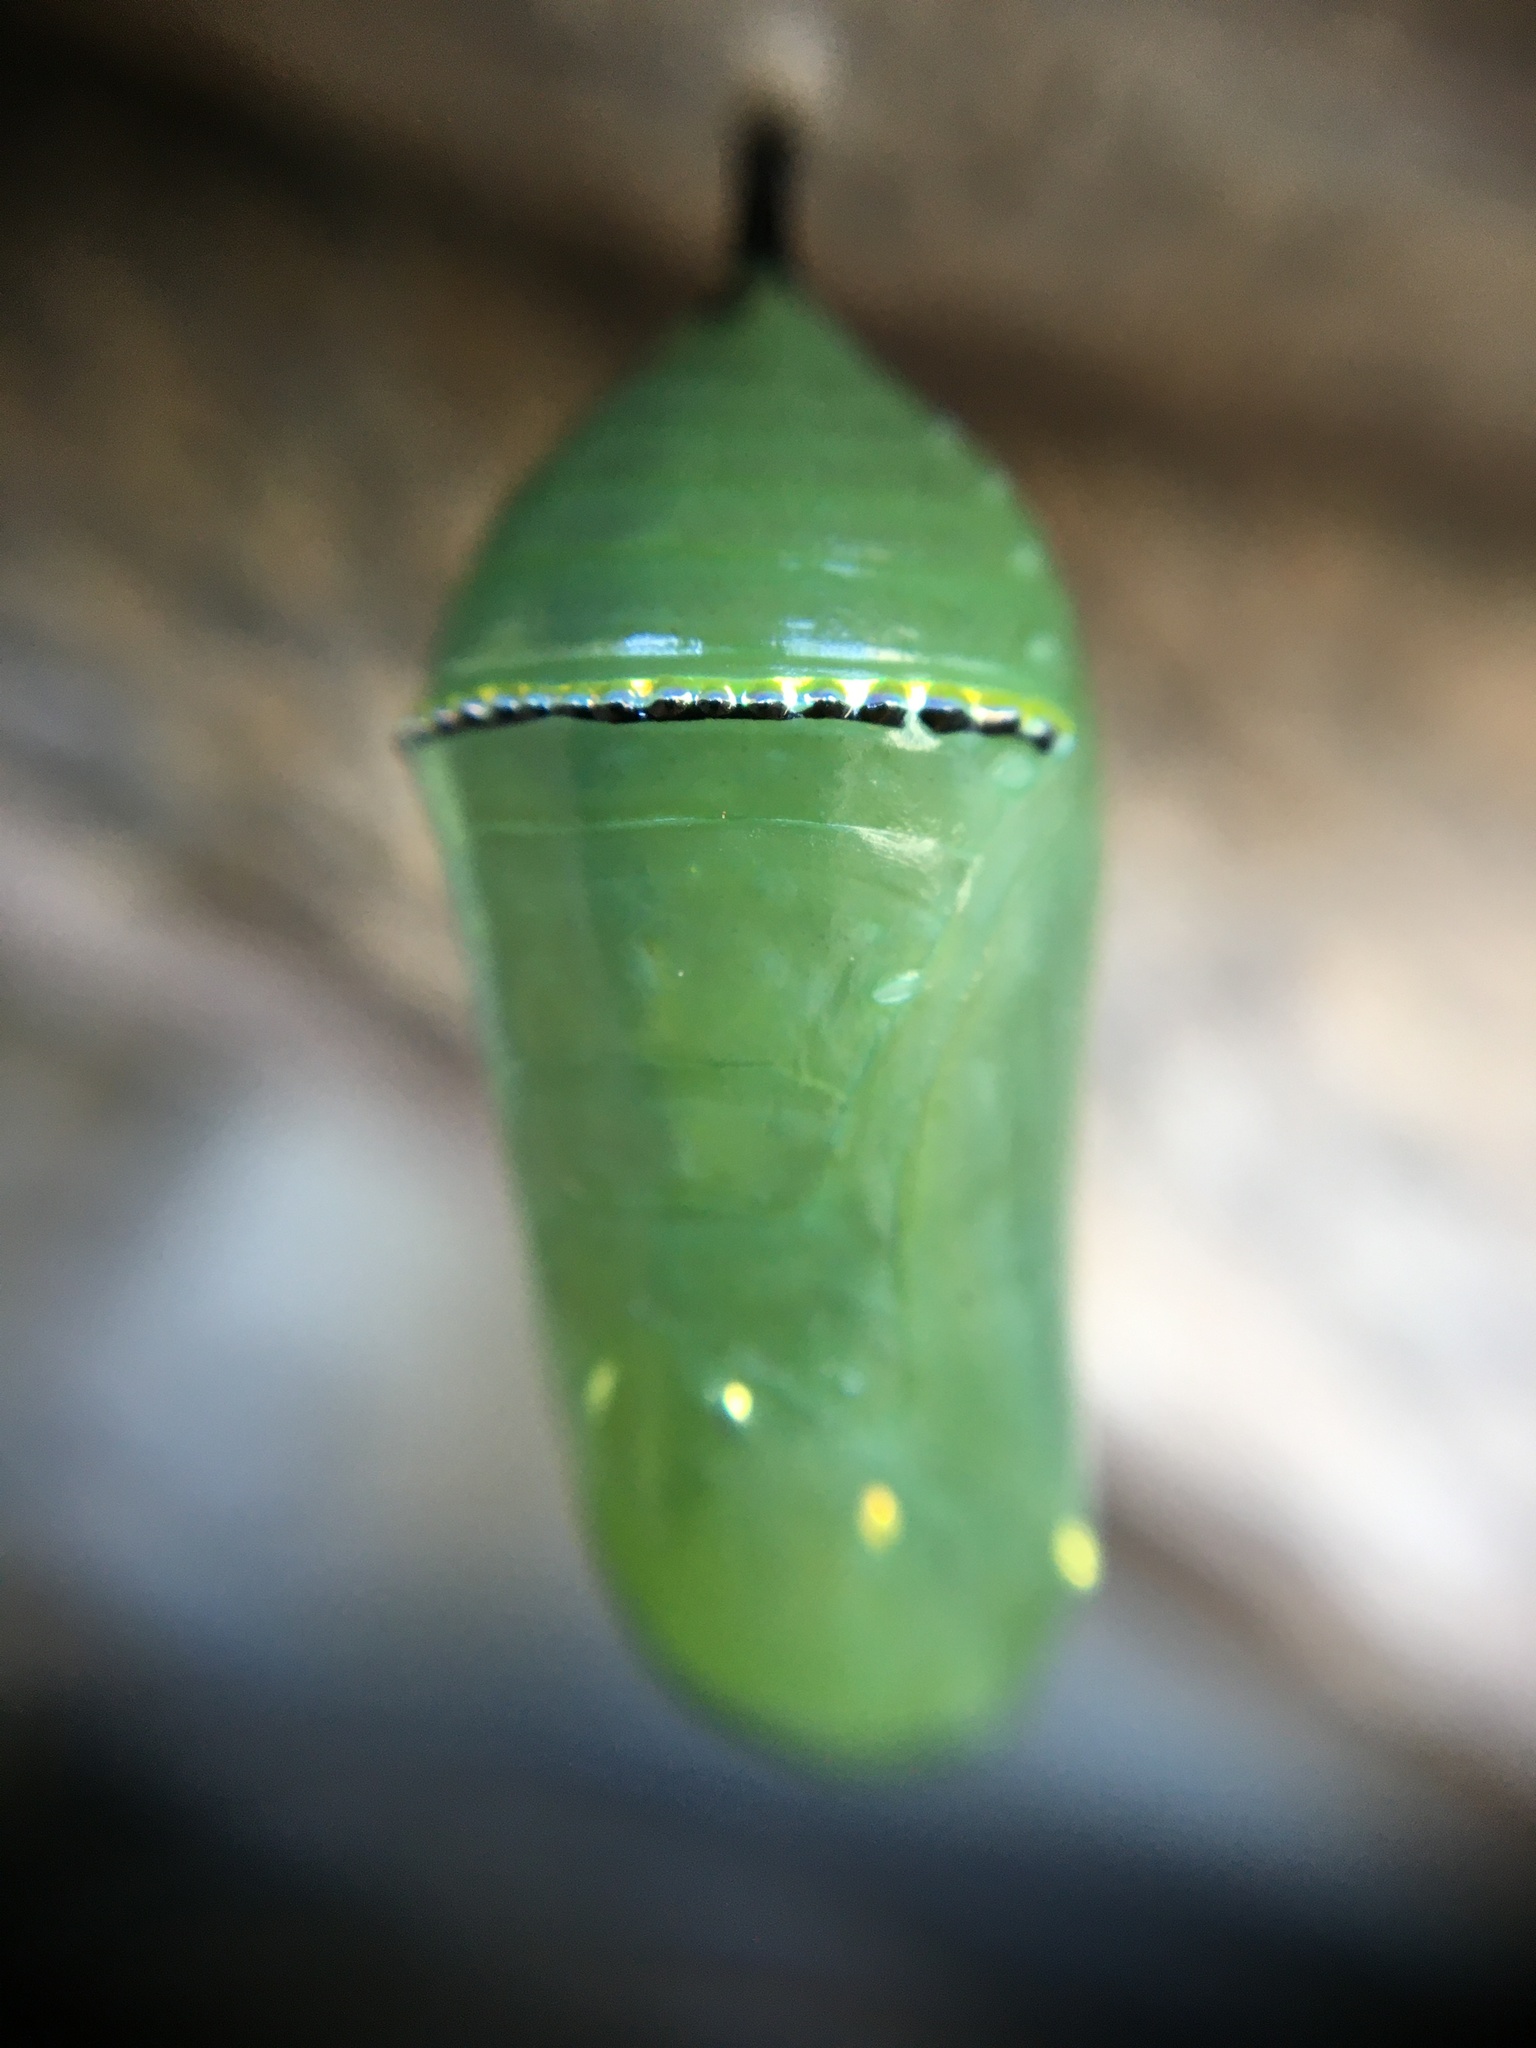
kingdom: Animalia
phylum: Arthropoda
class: Insecta
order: Lepidoptera
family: Nymphalidae
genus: Danaus
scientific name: Danaus plexippus
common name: Monarch
